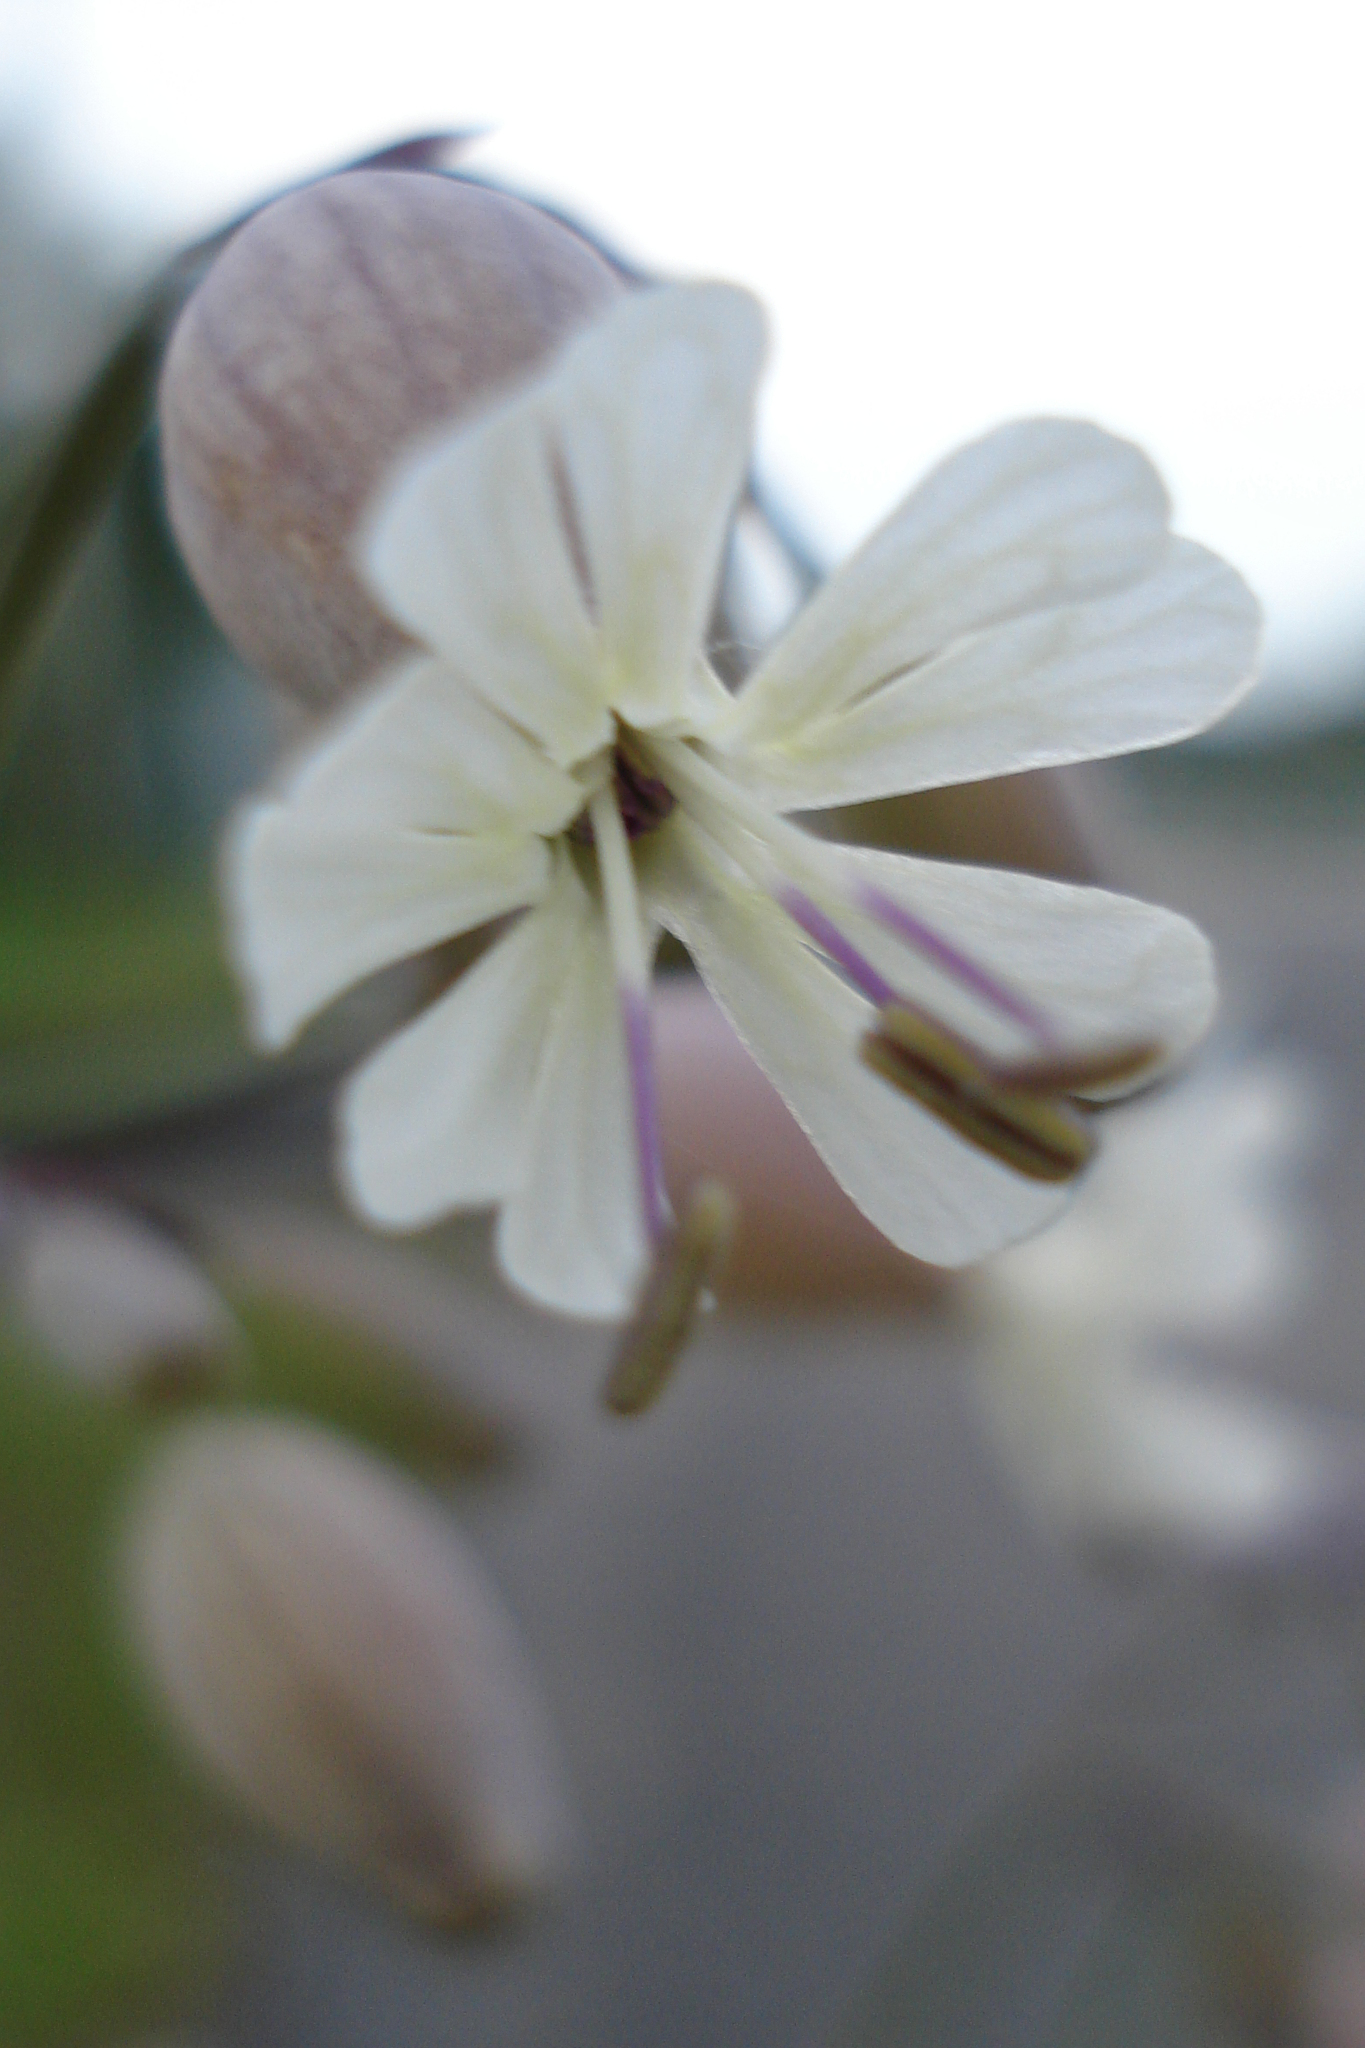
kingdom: Plantae
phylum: Tracheophyta
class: Magnoliopsida
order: Caryophyllales
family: Caryophyllaceae
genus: Silene
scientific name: Silene vulgaris
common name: Bladder campion
